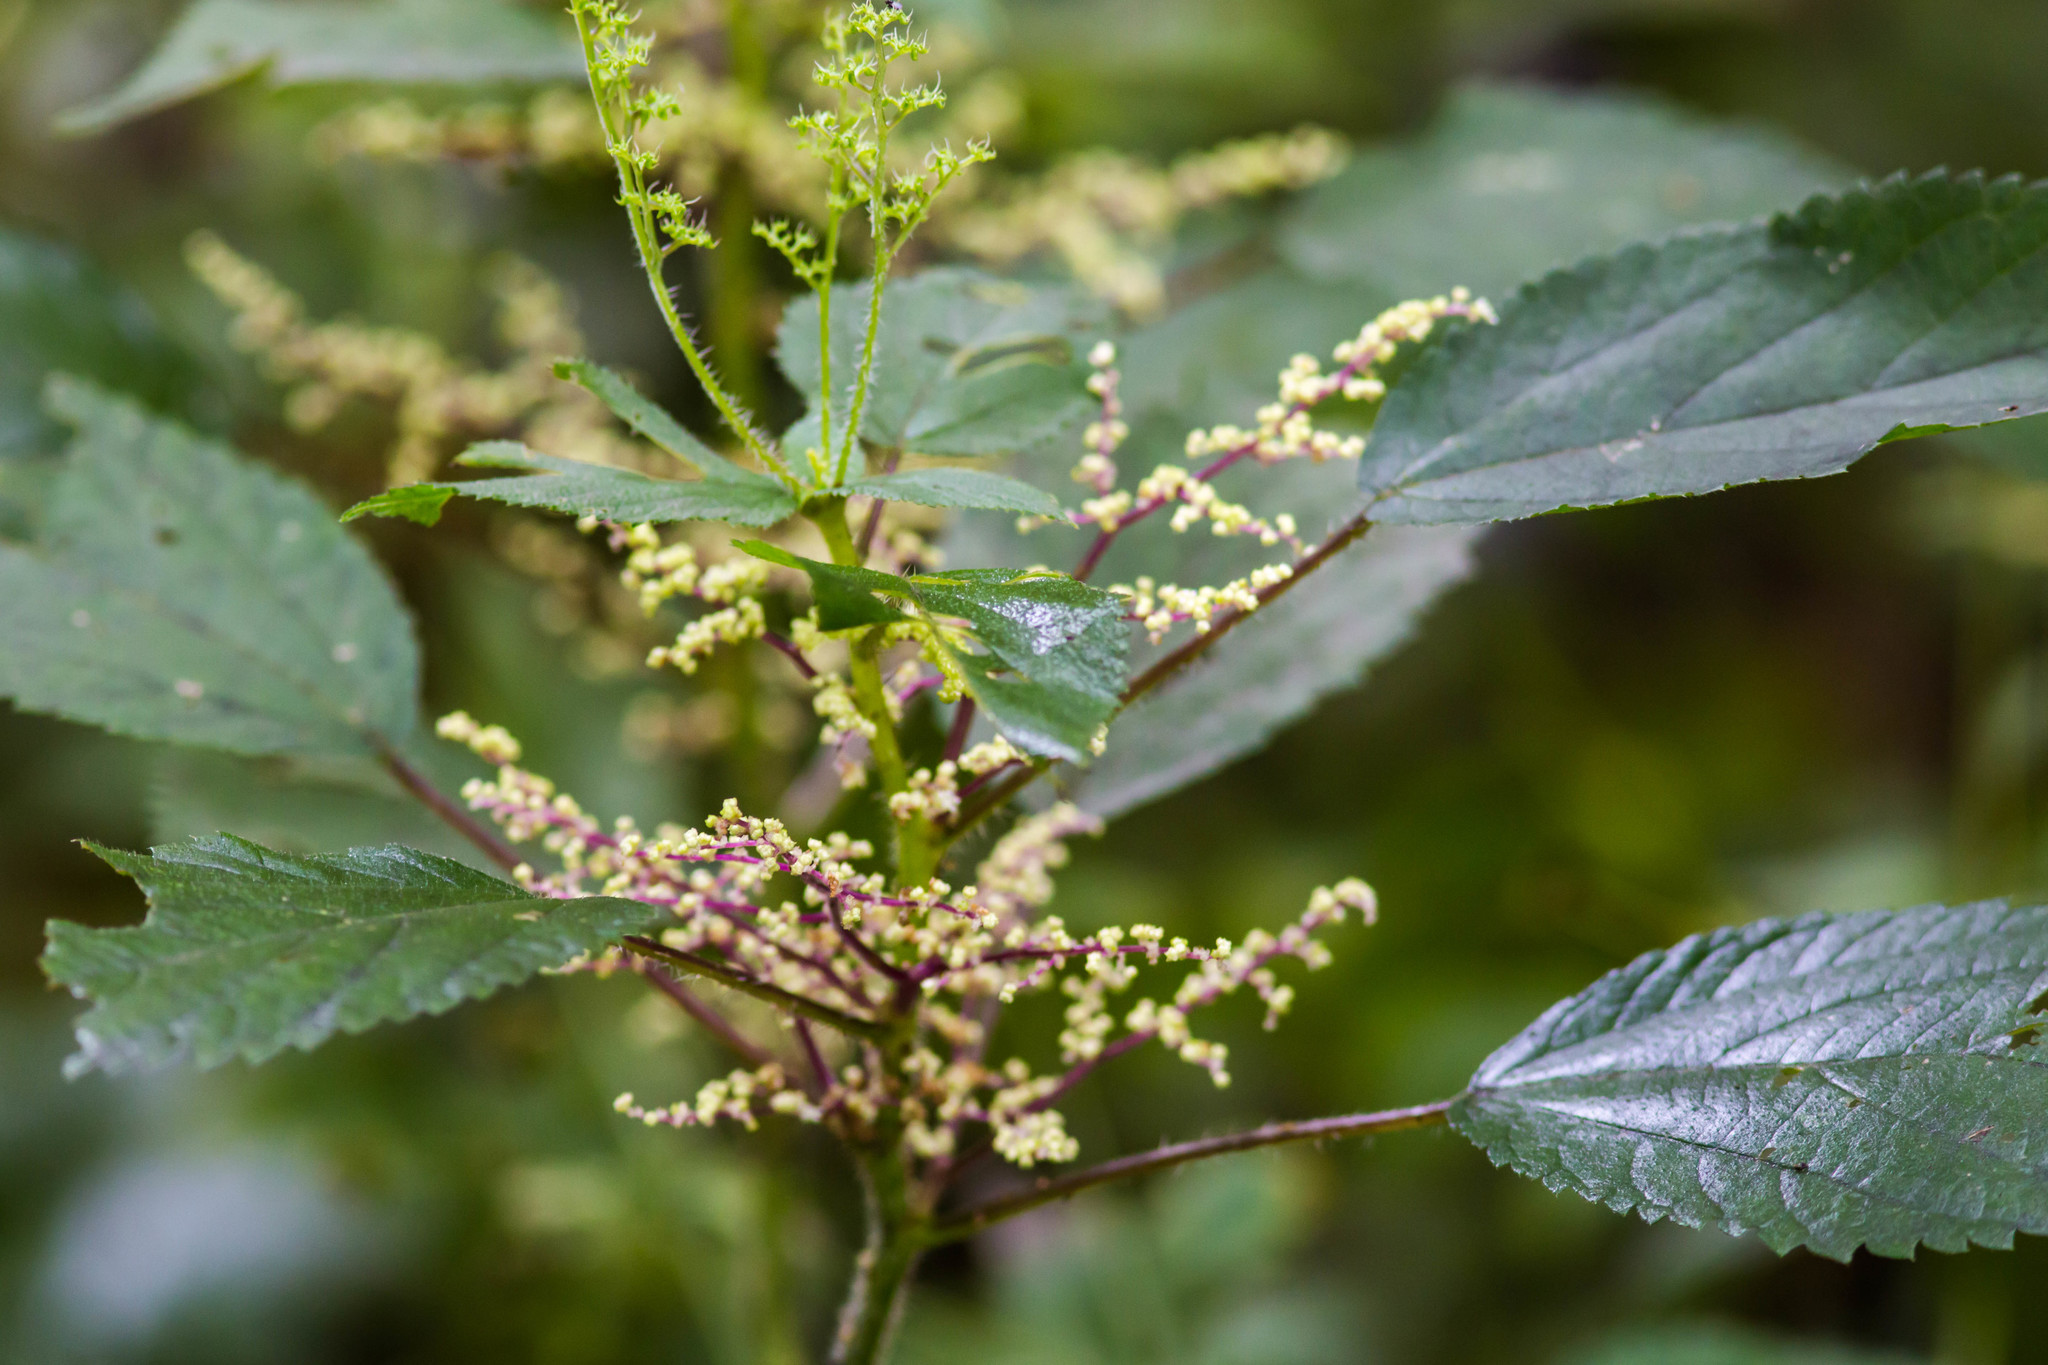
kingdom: Plantae
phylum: Tracheophyta
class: Magnoliopsida
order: Rosales
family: Urticaceae
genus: Laportea
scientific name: Laportea canadensis
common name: Canada nettle
